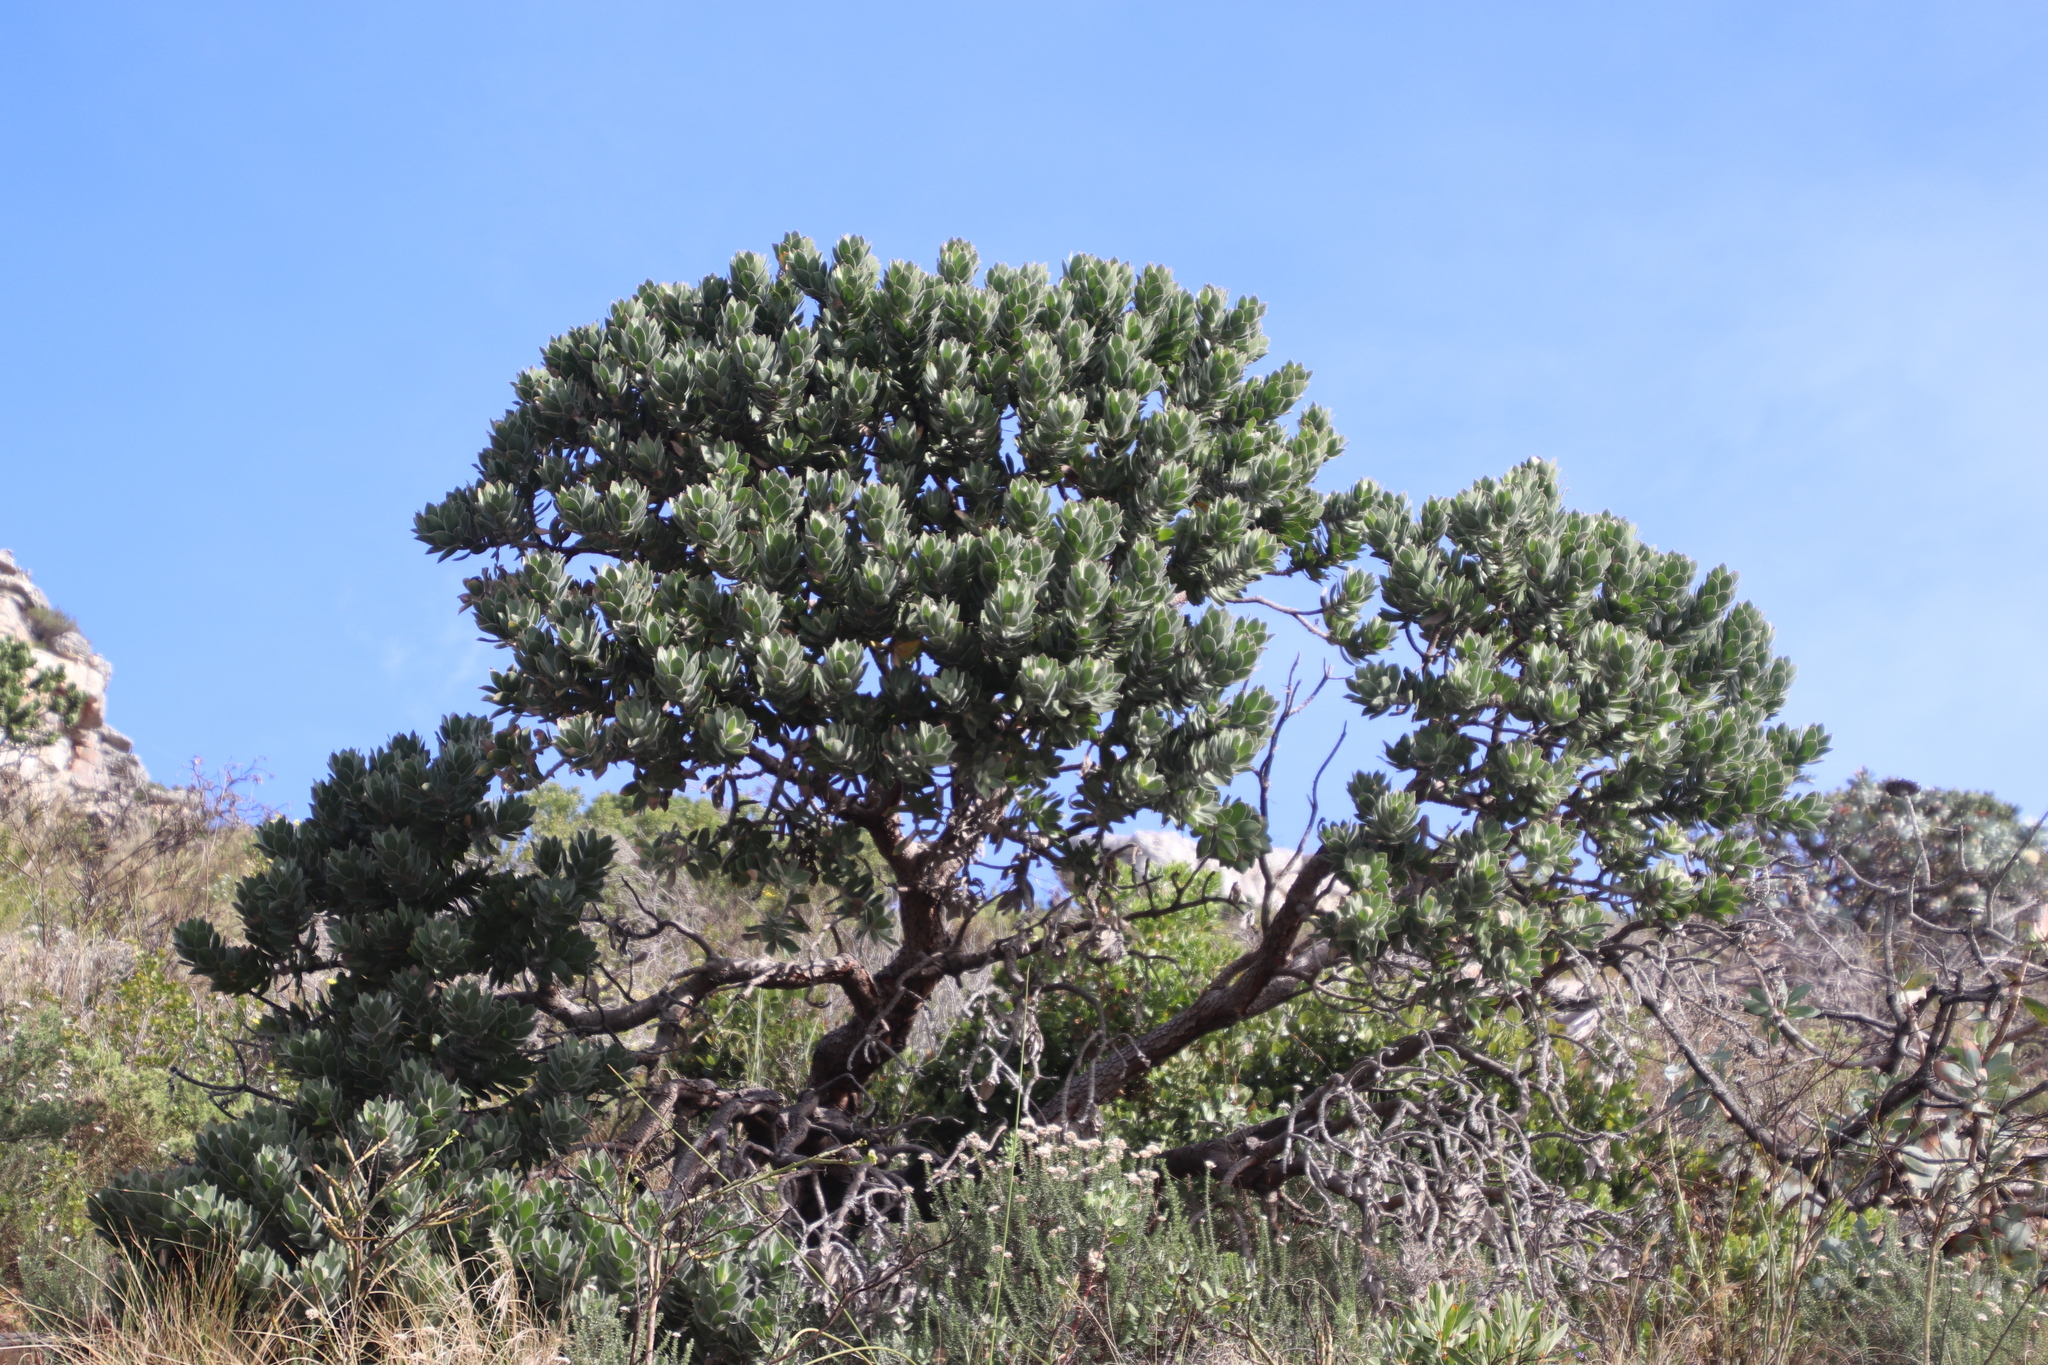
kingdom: Plantae
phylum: Tracheophyta
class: Magnoliopsida
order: Proteales
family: Proteaceae
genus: Leucospermum
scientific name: Leucospermum conocarpodendron
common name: Tree pincushion
